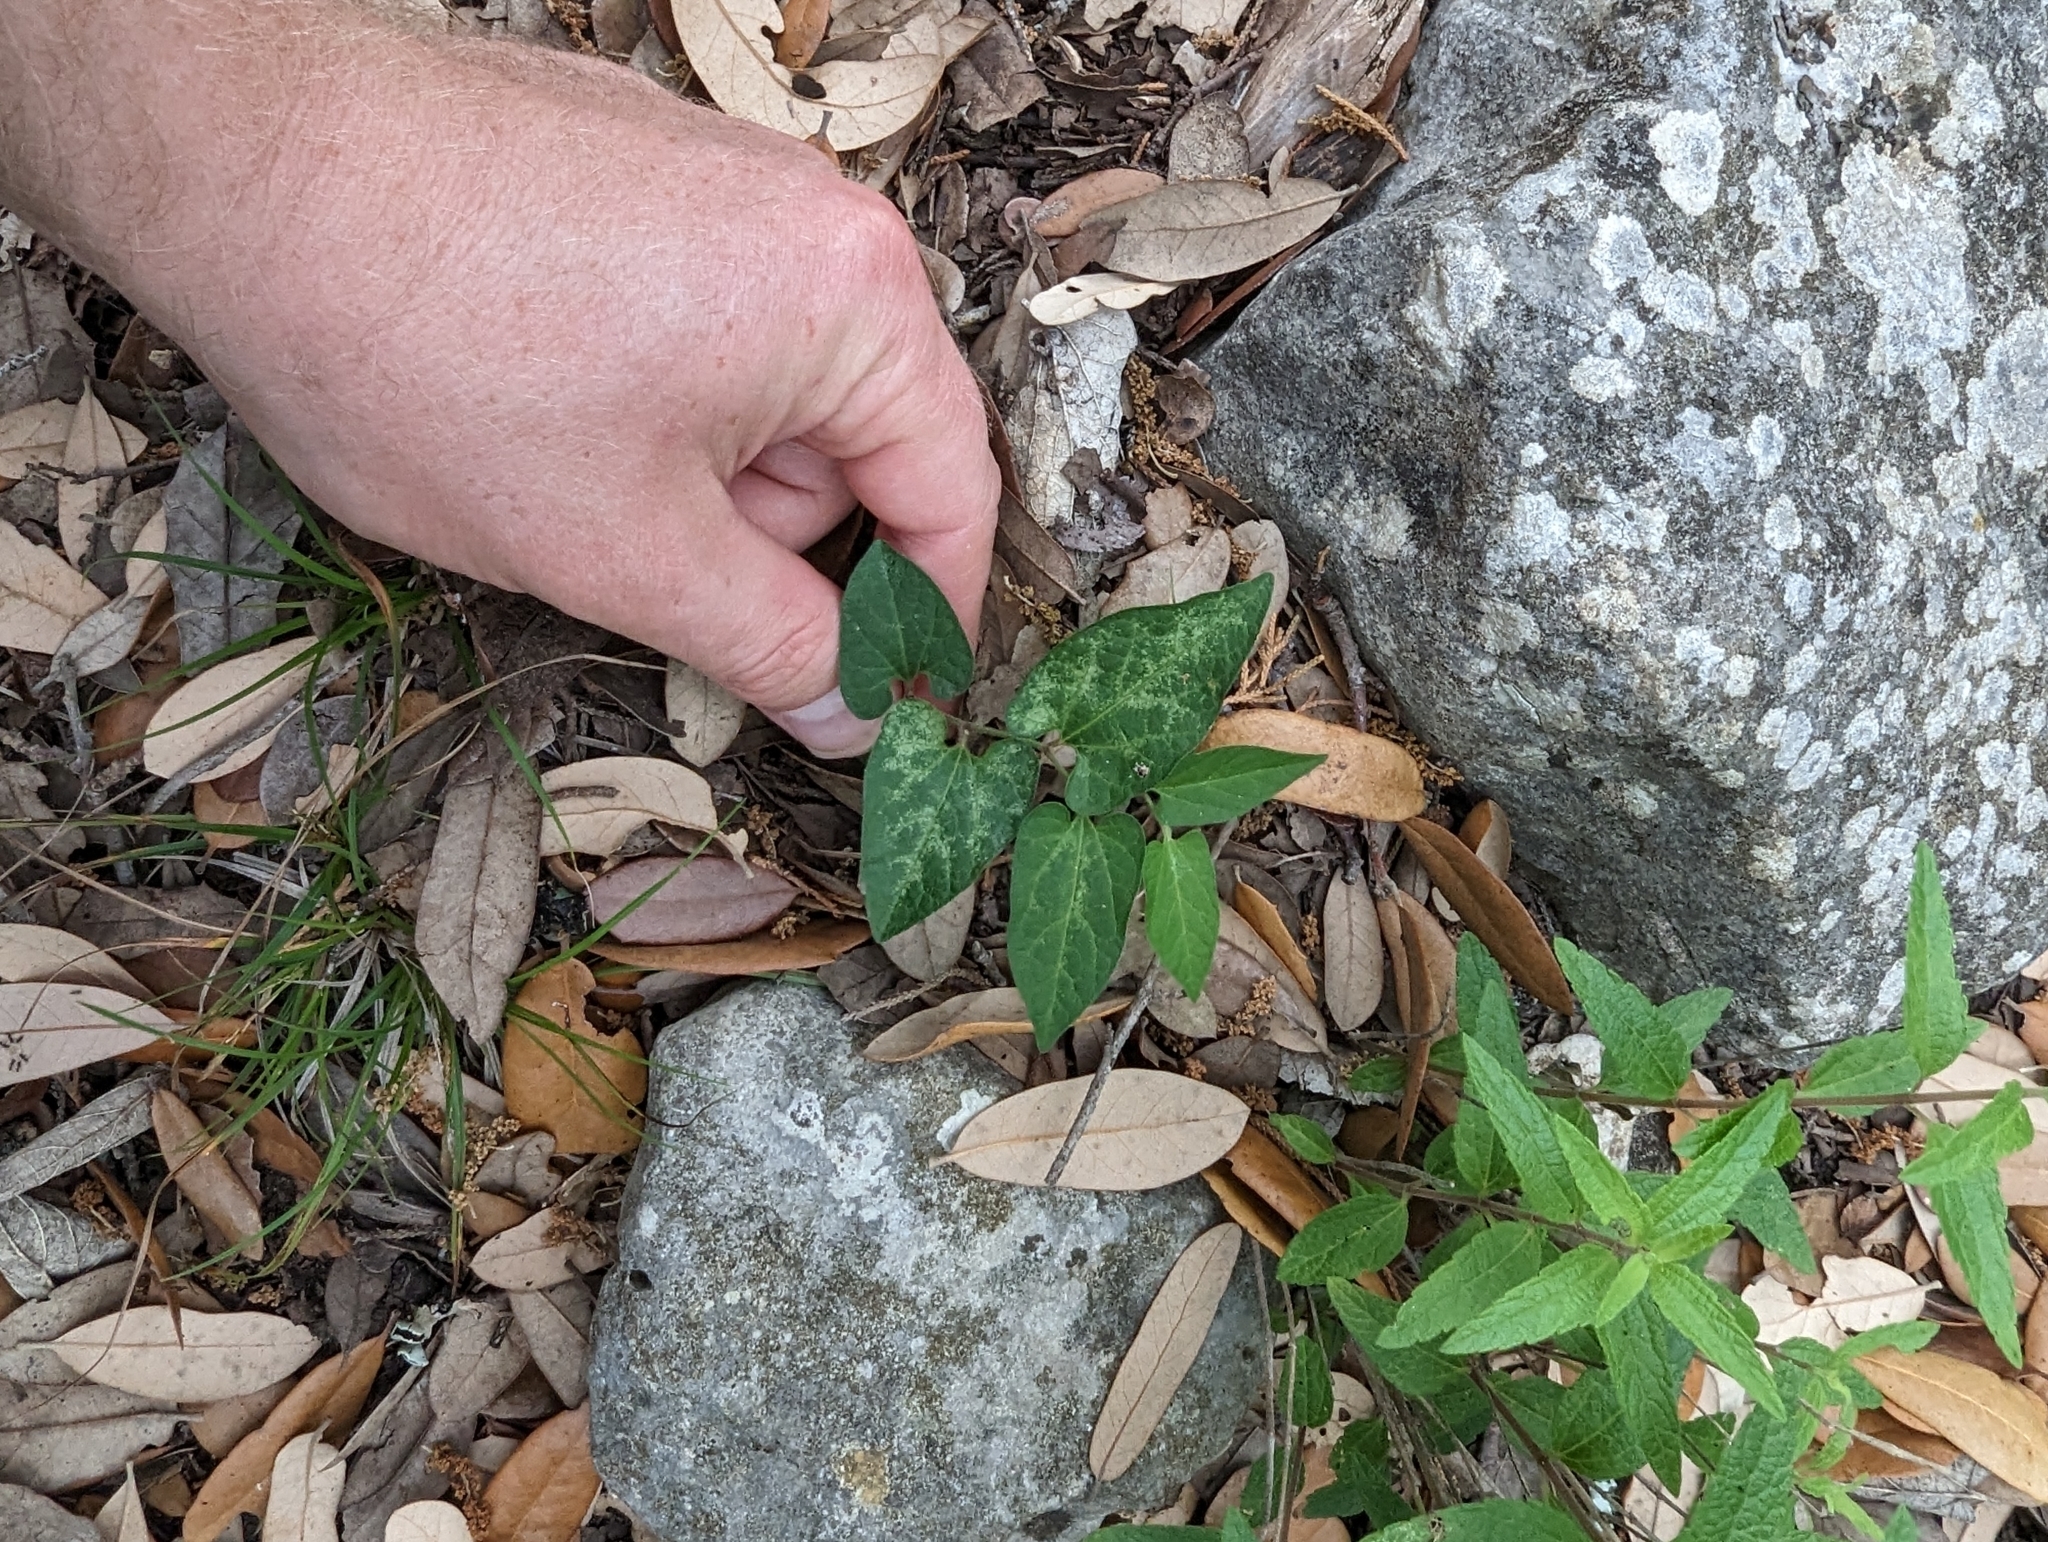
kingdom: Plantae
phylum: Tracheophyta
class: Magnoliopsida
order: Piperales
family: Aristolochiaceae
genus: Endodeca
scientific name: Endodeca serpentaria
